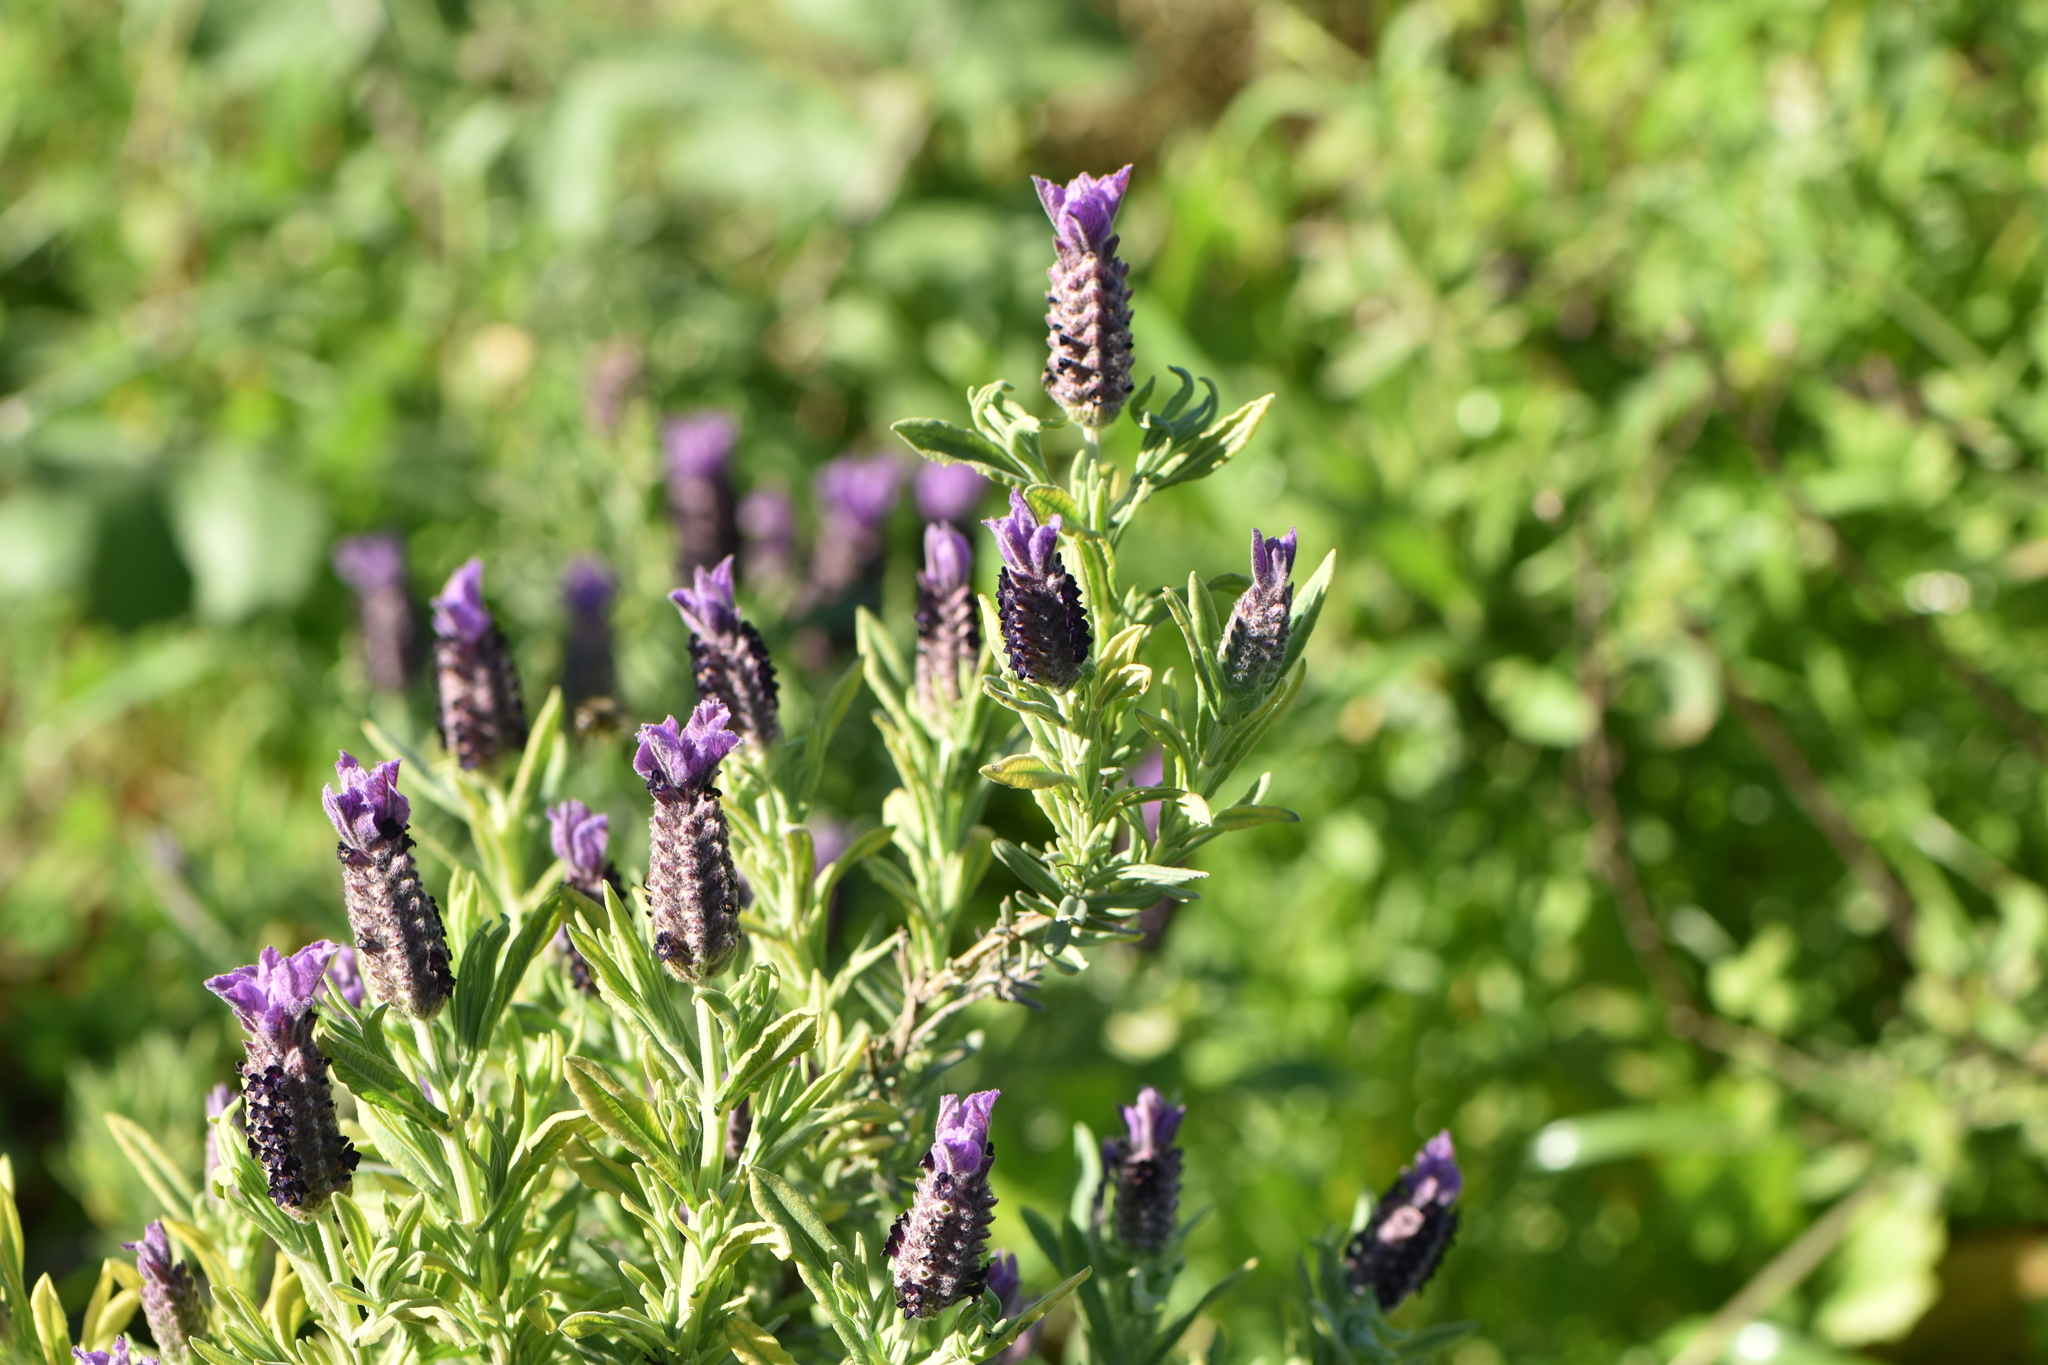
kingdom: Plantae
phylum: Tracheophyta
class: Magnoliopsida
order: Lamiales
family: Lamiaceae
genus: Lavandula
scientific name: Lavandula stoechas
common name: French lavender
